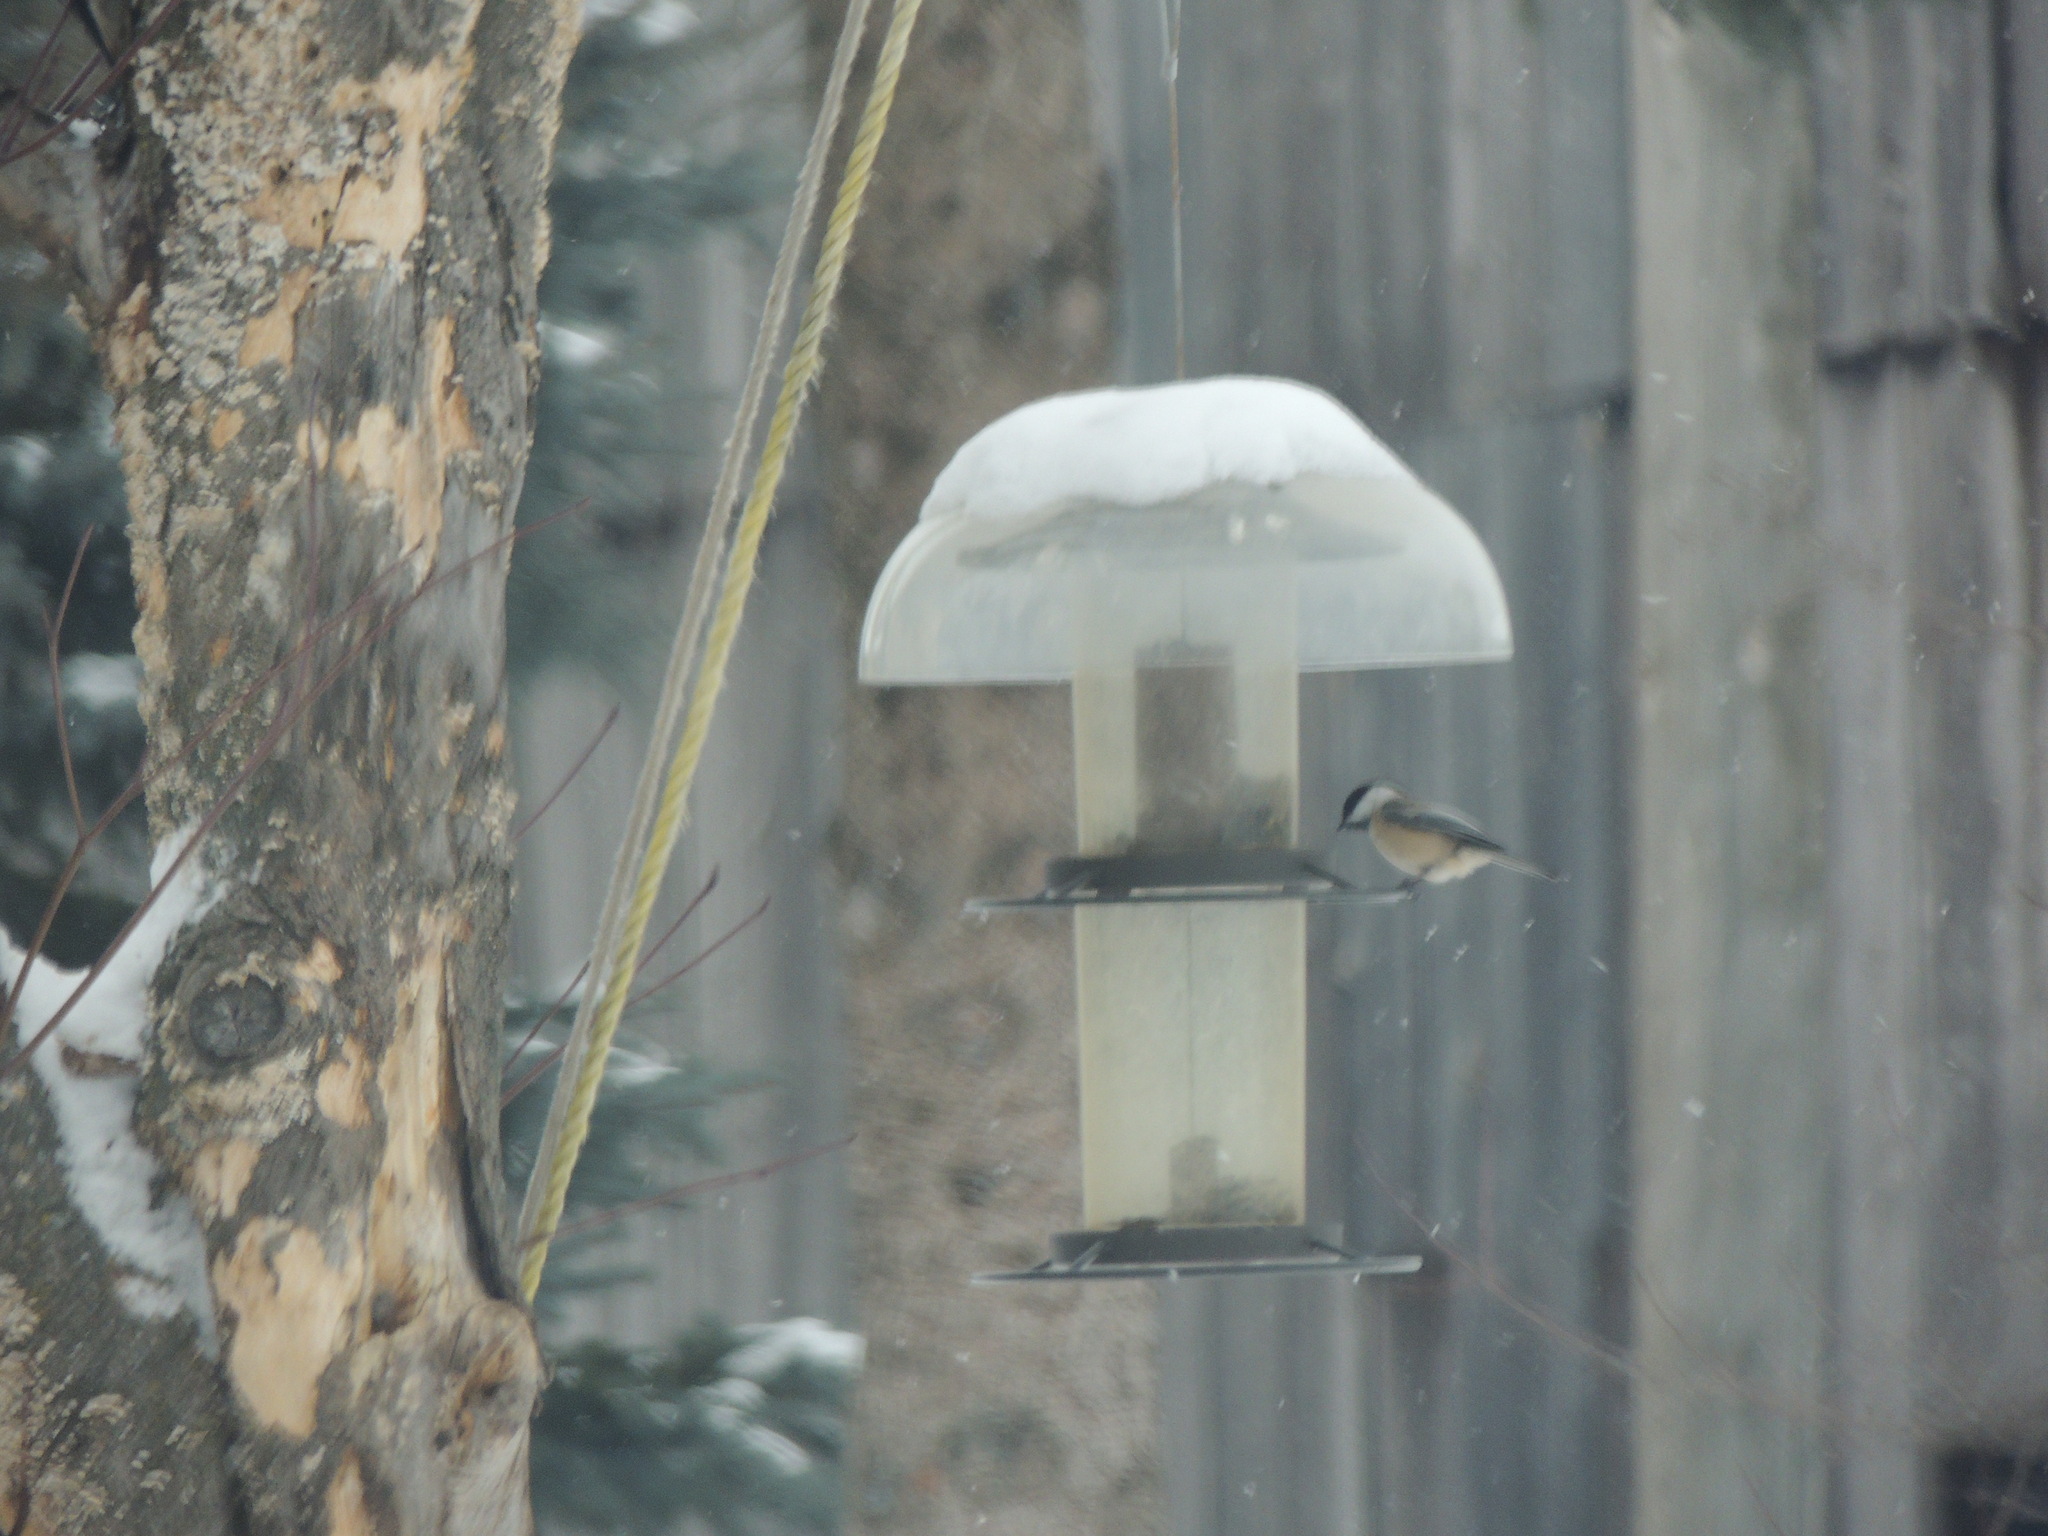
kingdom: Animalia
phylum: Chordata
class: Aves
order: Passeriformes
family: Paridae
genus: Poecile
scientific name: Poecile atricapillus
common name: Black-capped chickadee
